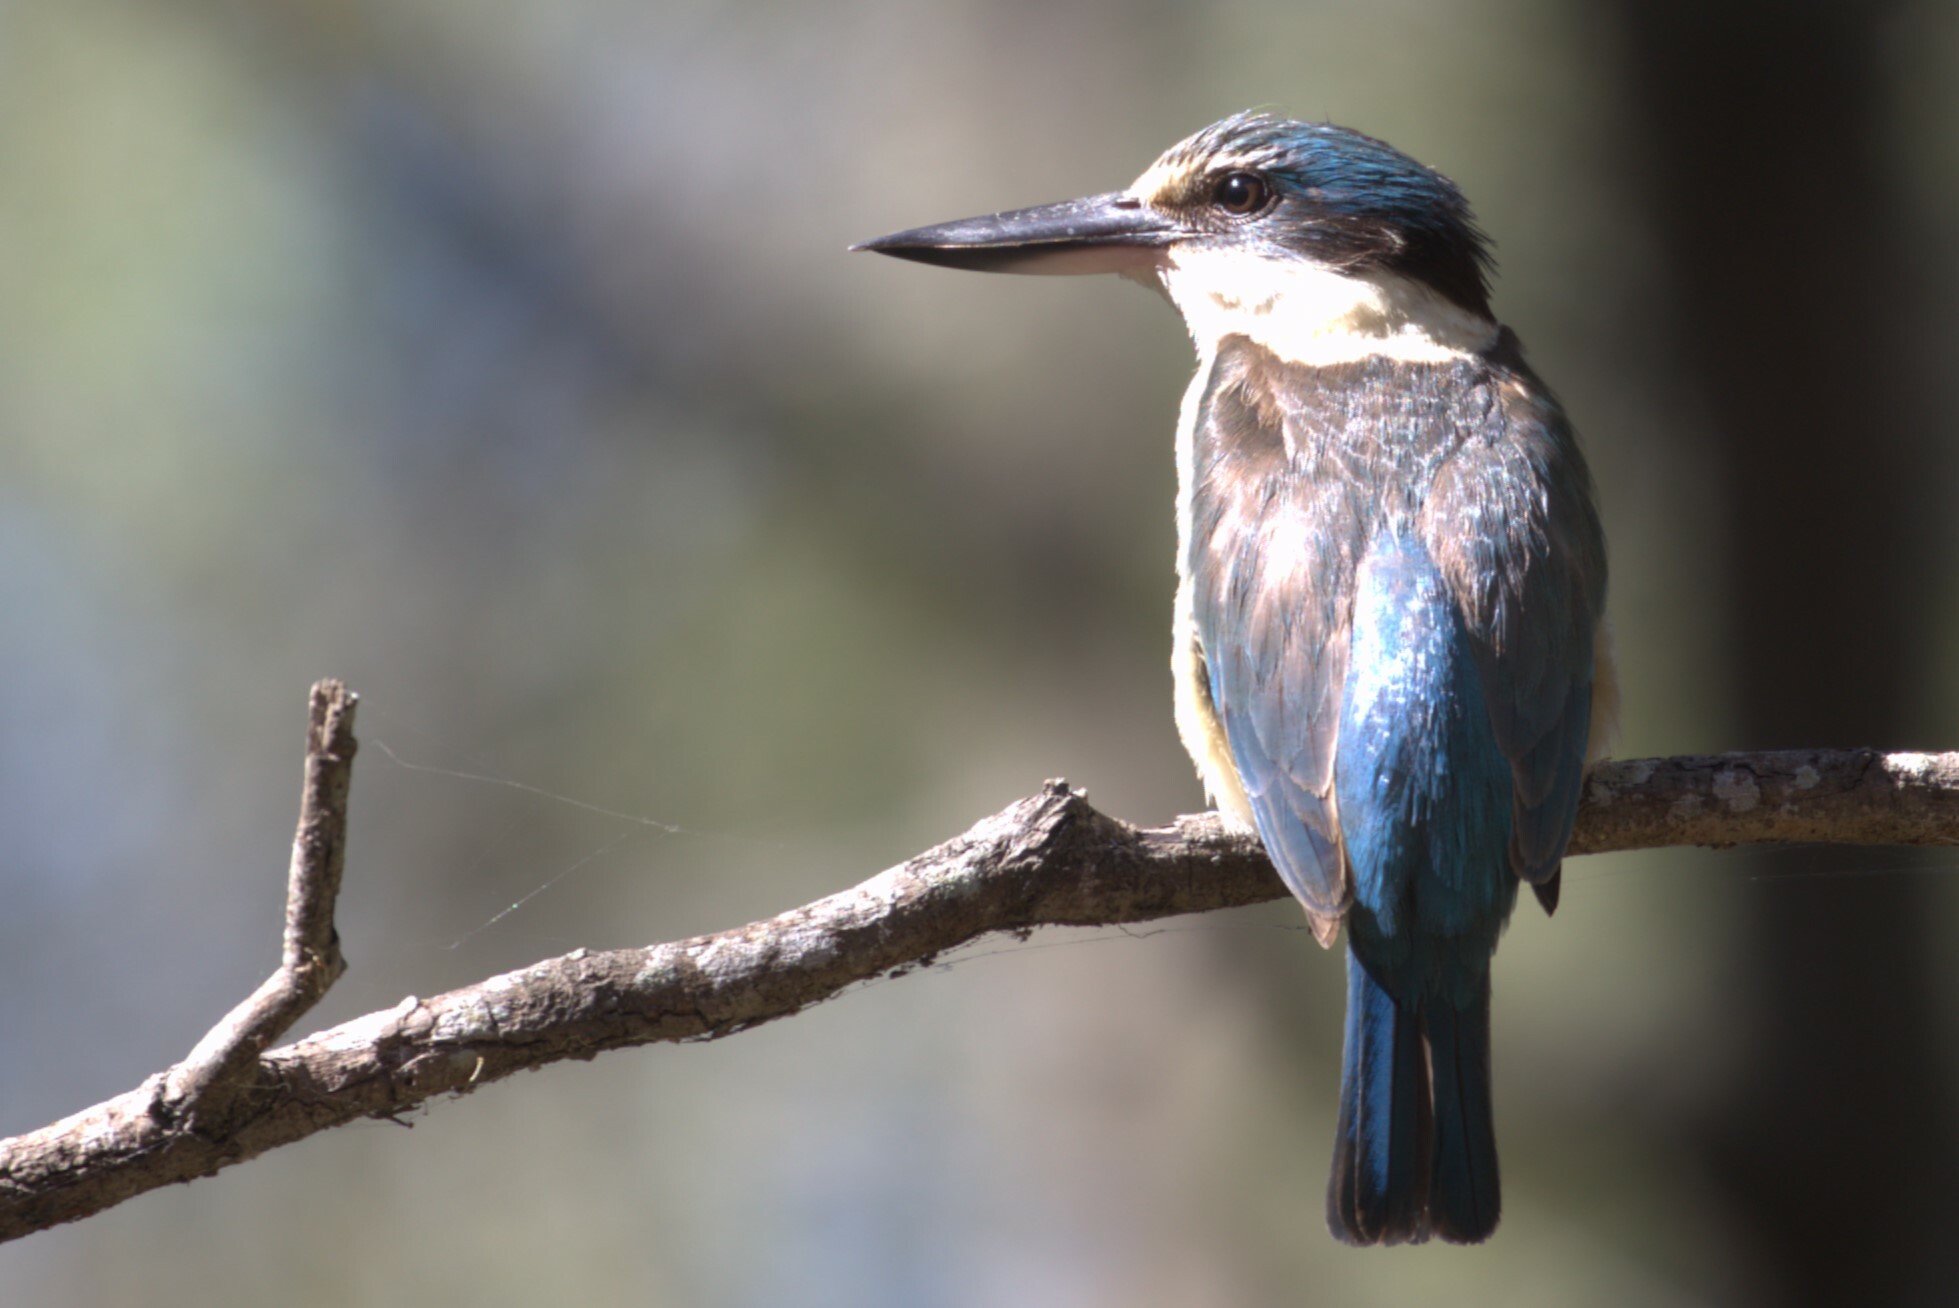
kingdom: Animalia
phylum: Chordata
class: Aves
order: Coraciiformes
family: Alcedinidae
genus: Todiramphus
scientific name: Todiramphus sanctus
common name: Sacred kingfisher
